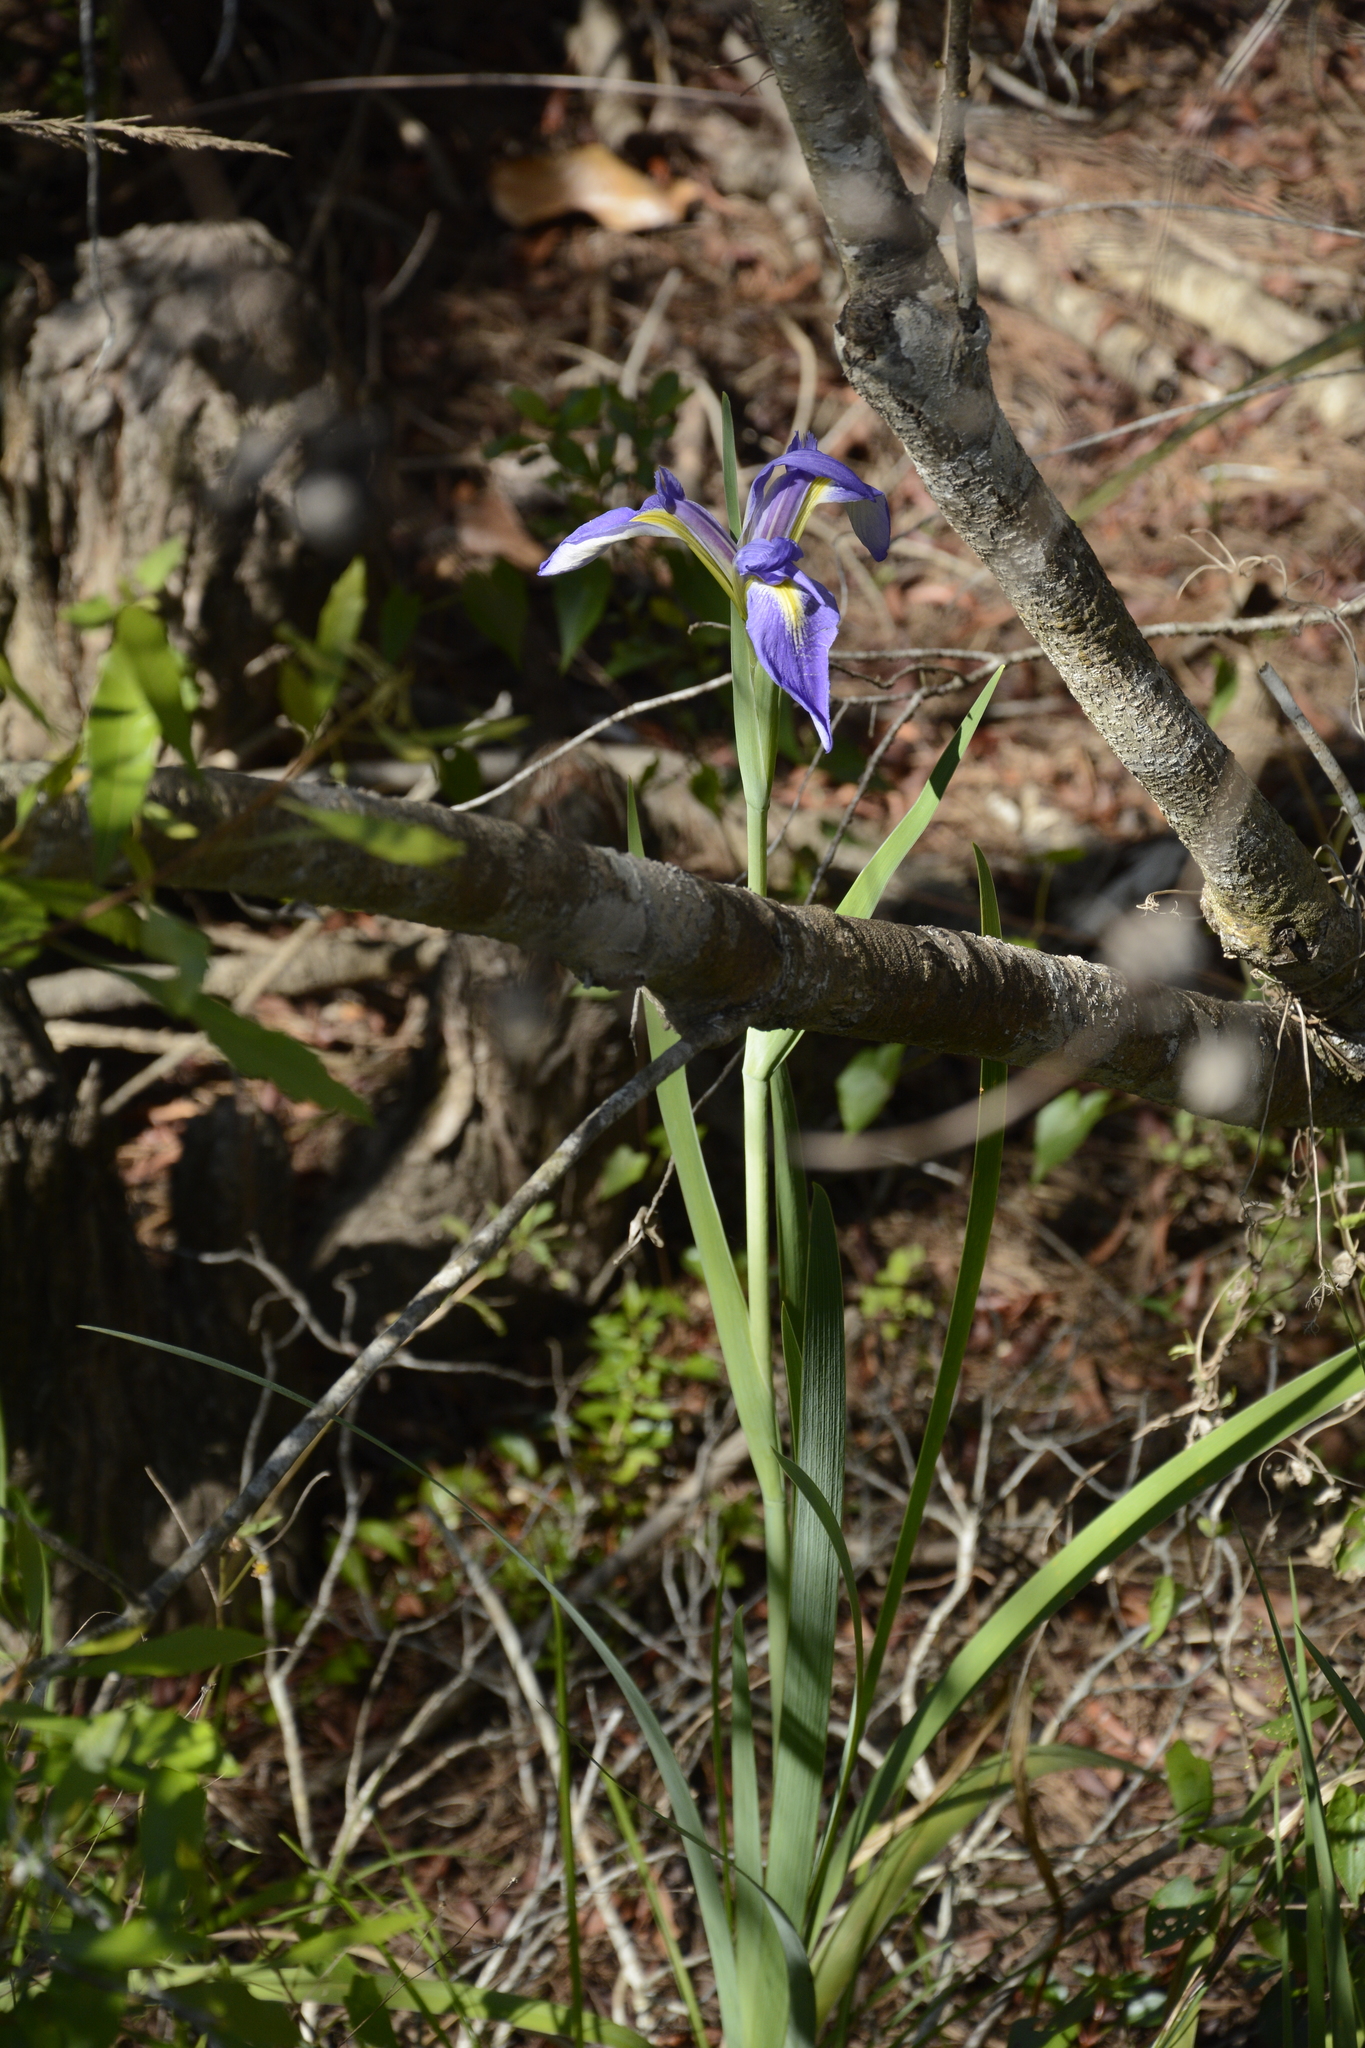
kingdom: Plantae
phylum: Tracheophyta
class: Liliopsida
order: Asparagales
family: Iridaceae
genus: Iris
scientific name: Iris savannarum
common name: Prairie iris
